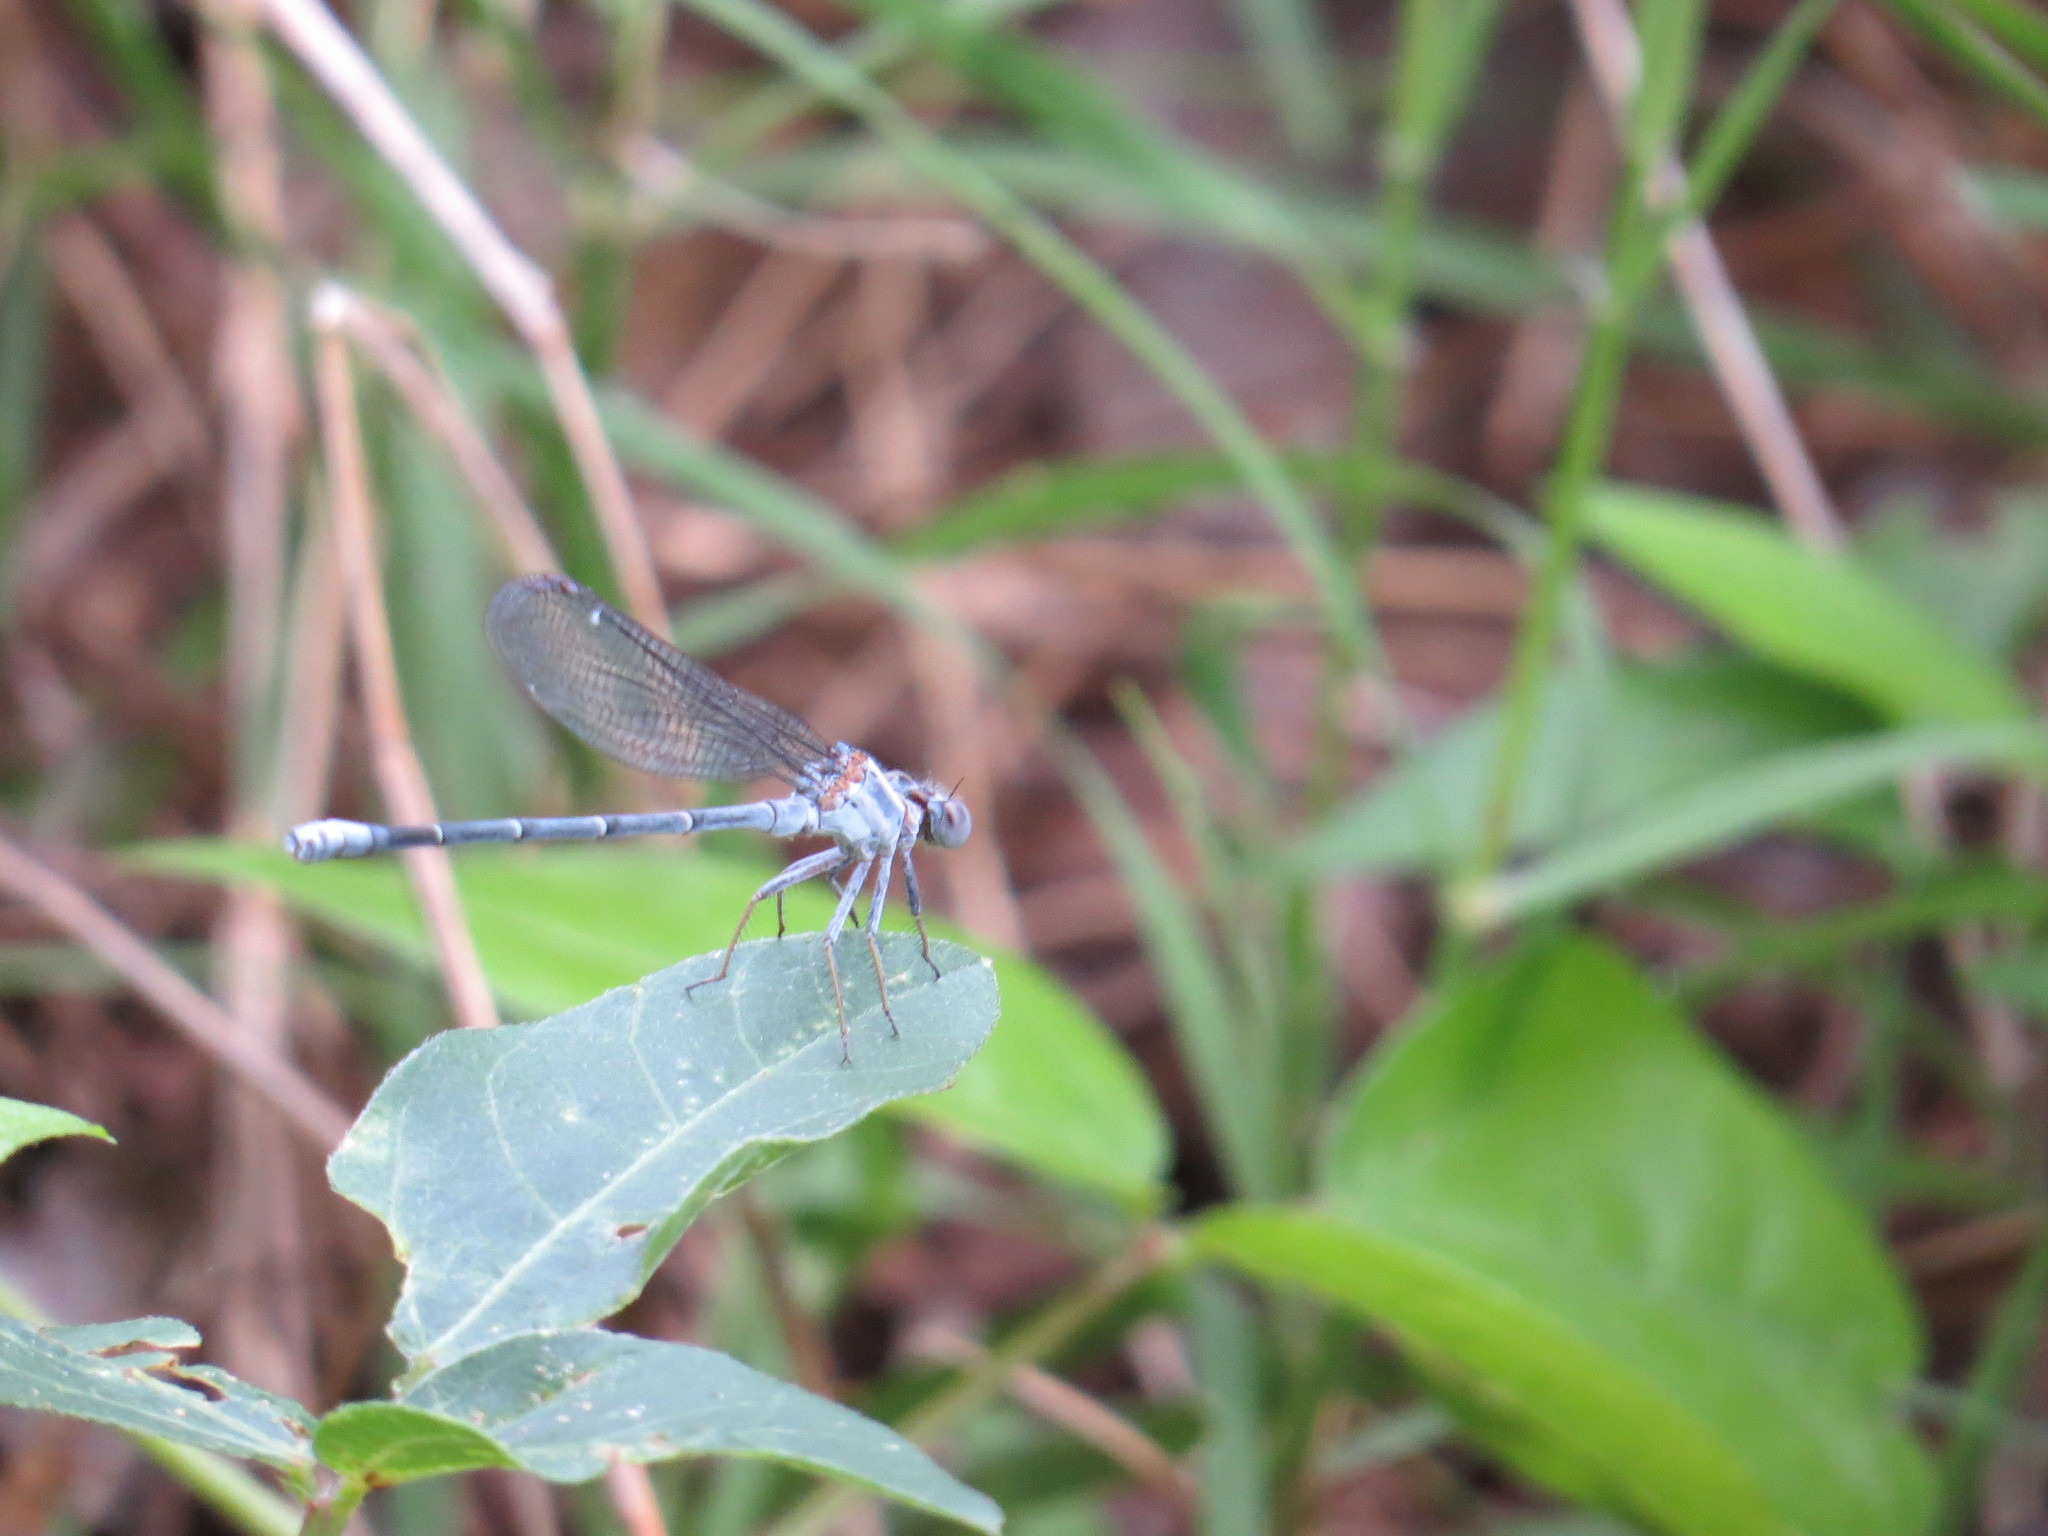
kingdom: Animalia
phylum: Arthropoda
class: Insecta
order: Odonata
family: Coenagrionidae
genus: Argia
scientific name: Argia moesta
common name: Powdered dancer
